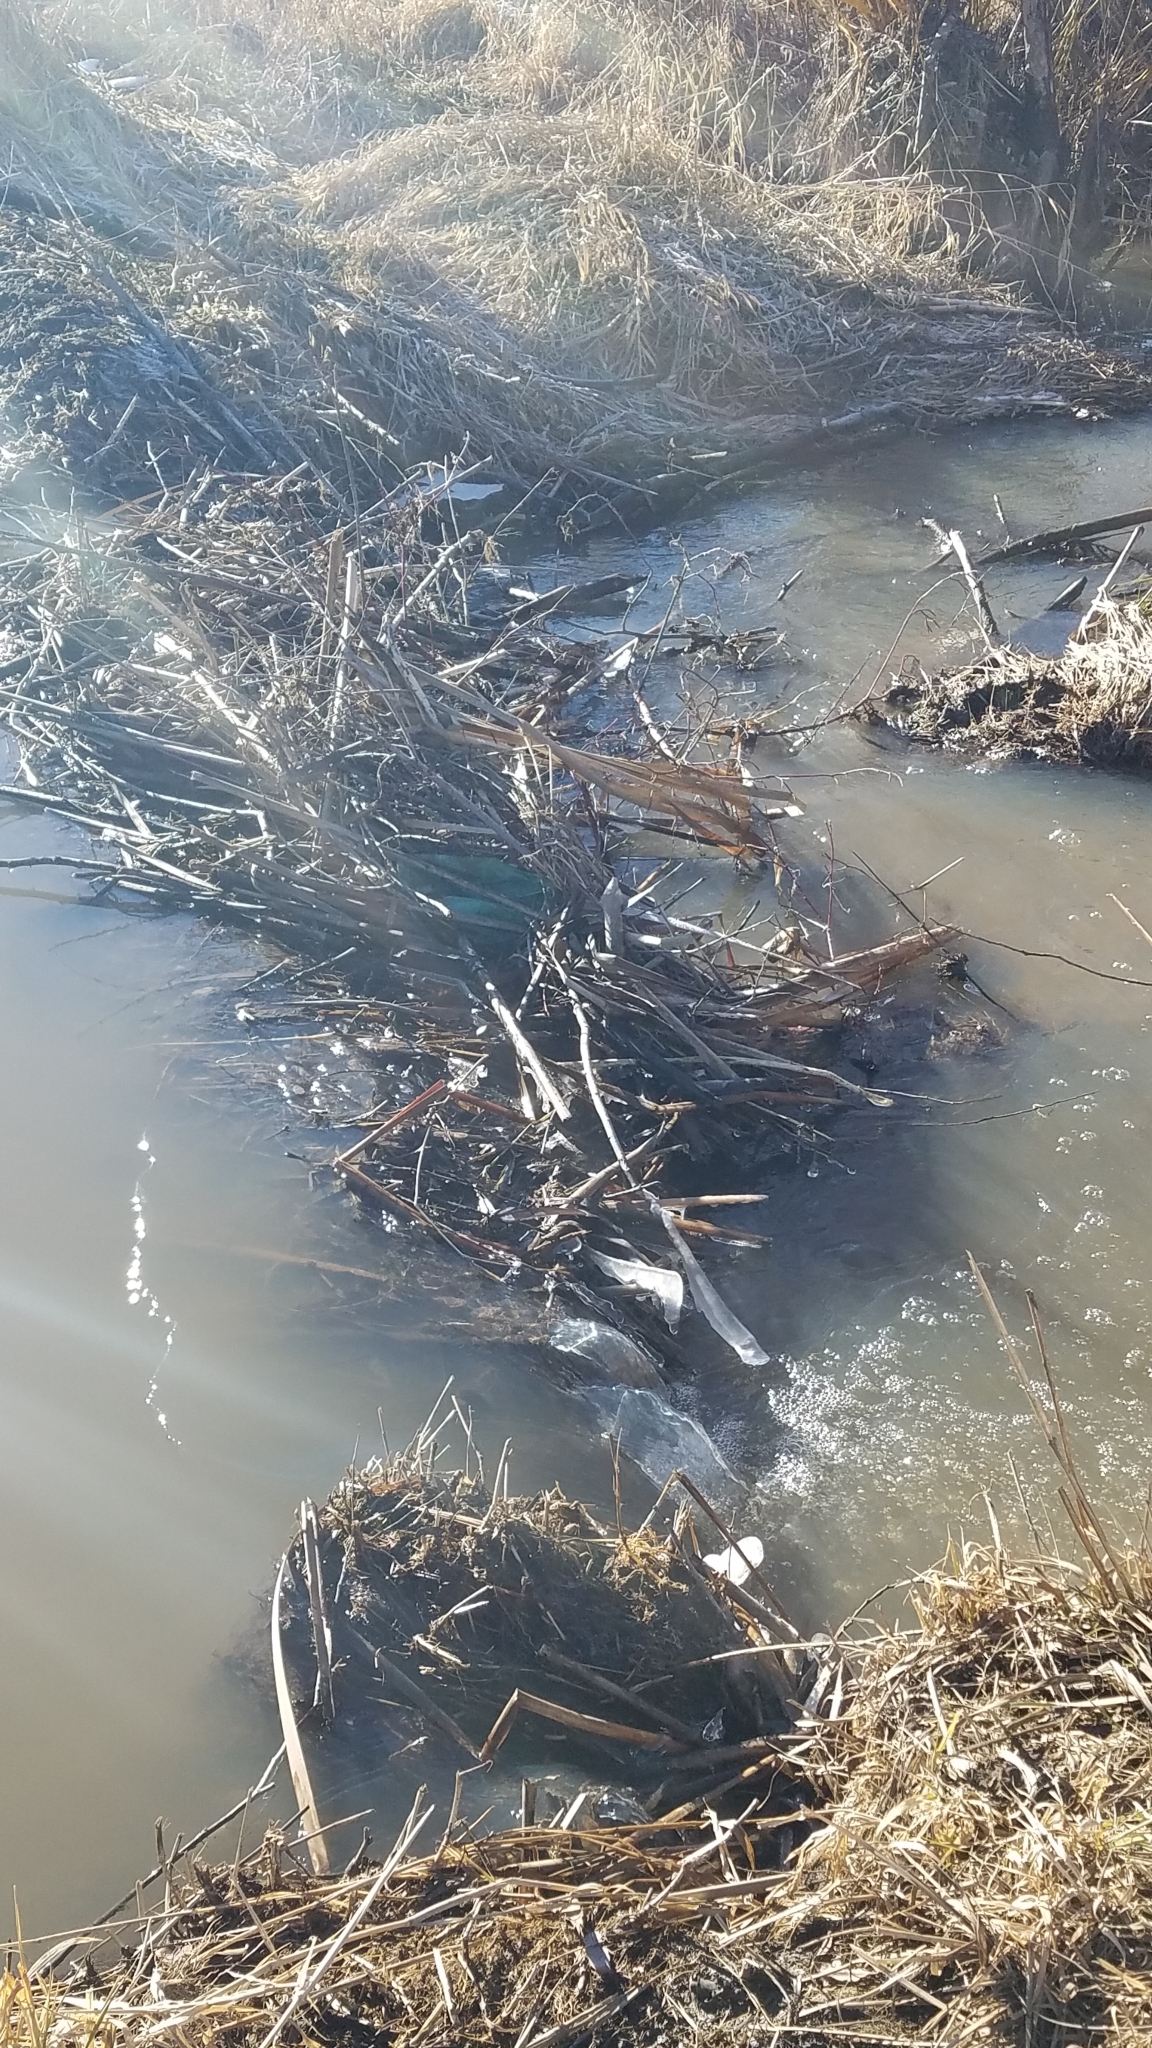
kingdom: Animalia
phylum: Chordata
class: Mammalia
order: Rodentia
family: Castoridae
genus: Castor
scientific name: Castor canadensis
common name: American beaver
